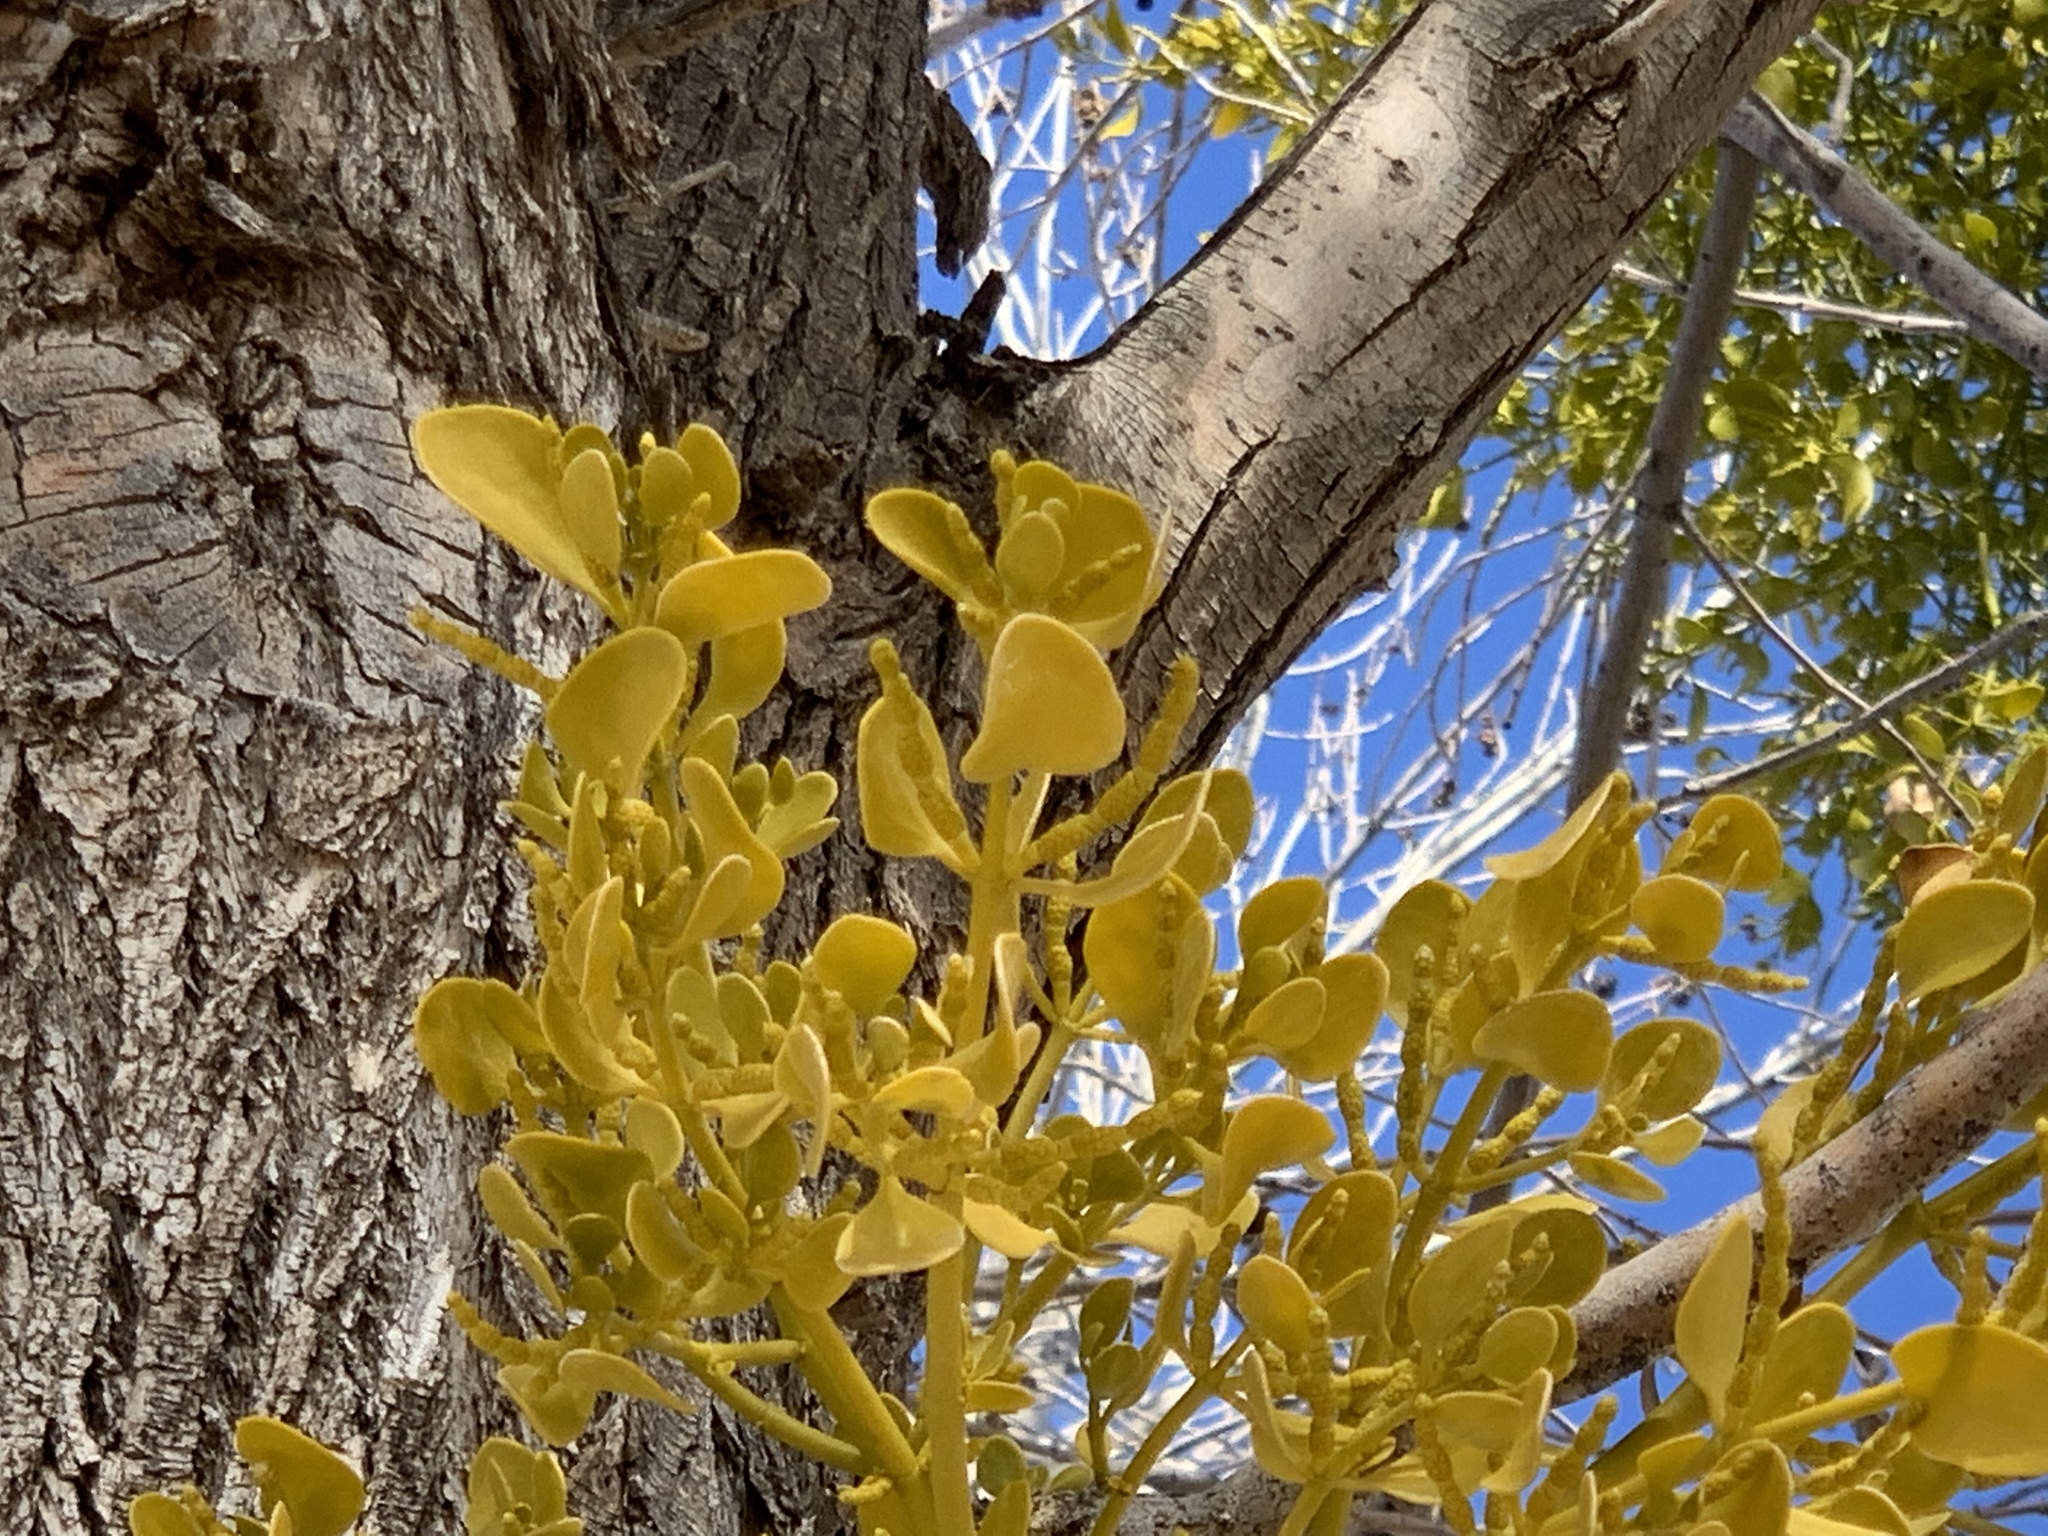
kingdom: Plantae
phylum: Tracheophyta
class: Magnoliopsida
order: Santalales
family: Viscaceae
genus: Phoradendron
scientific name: Phoradendron
